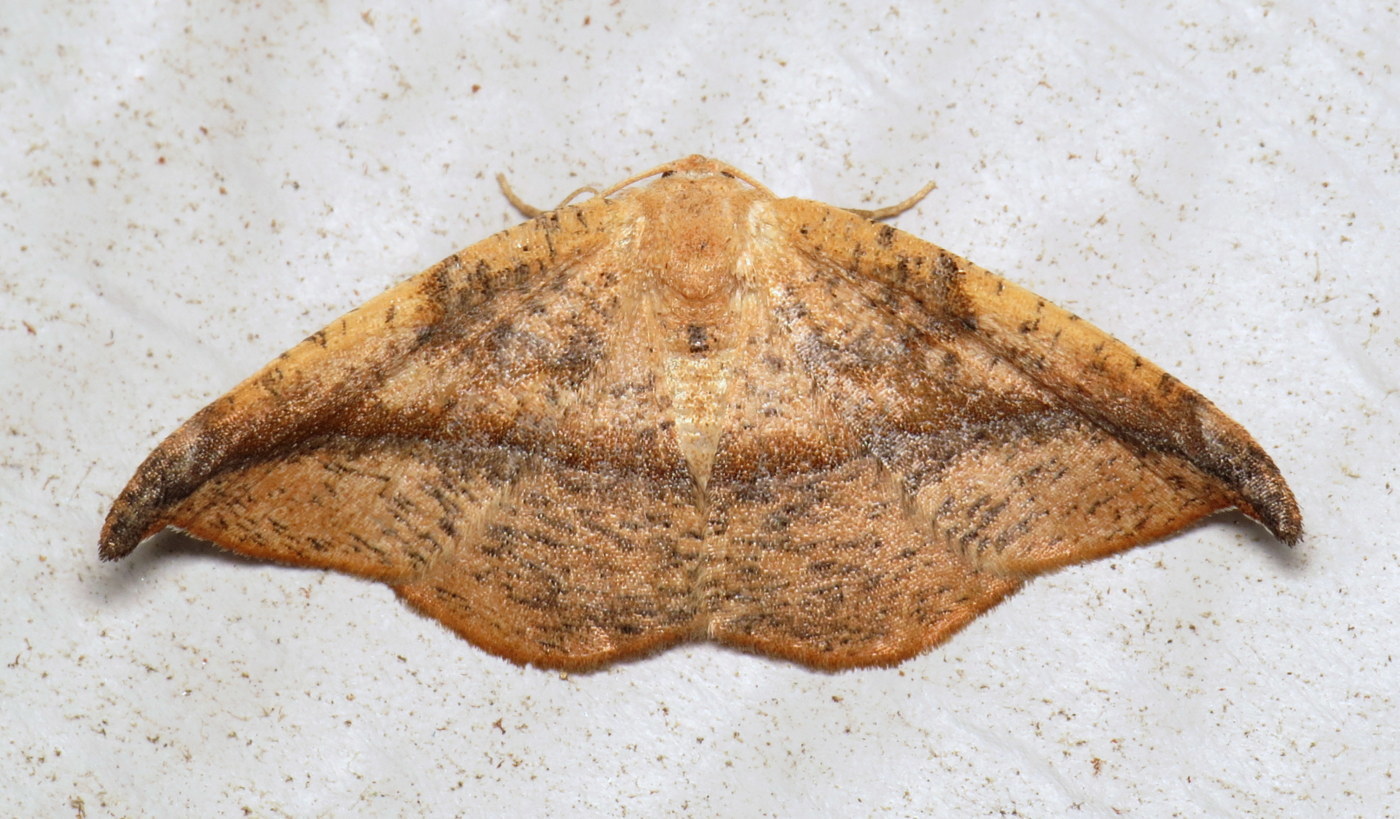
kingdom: Animalia
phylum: Arthropoda
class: Insecta
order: Lepidoptera
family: Geometridae
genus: Patalene
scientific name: Patalene olyzonaria
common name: Juniper geometer moth
